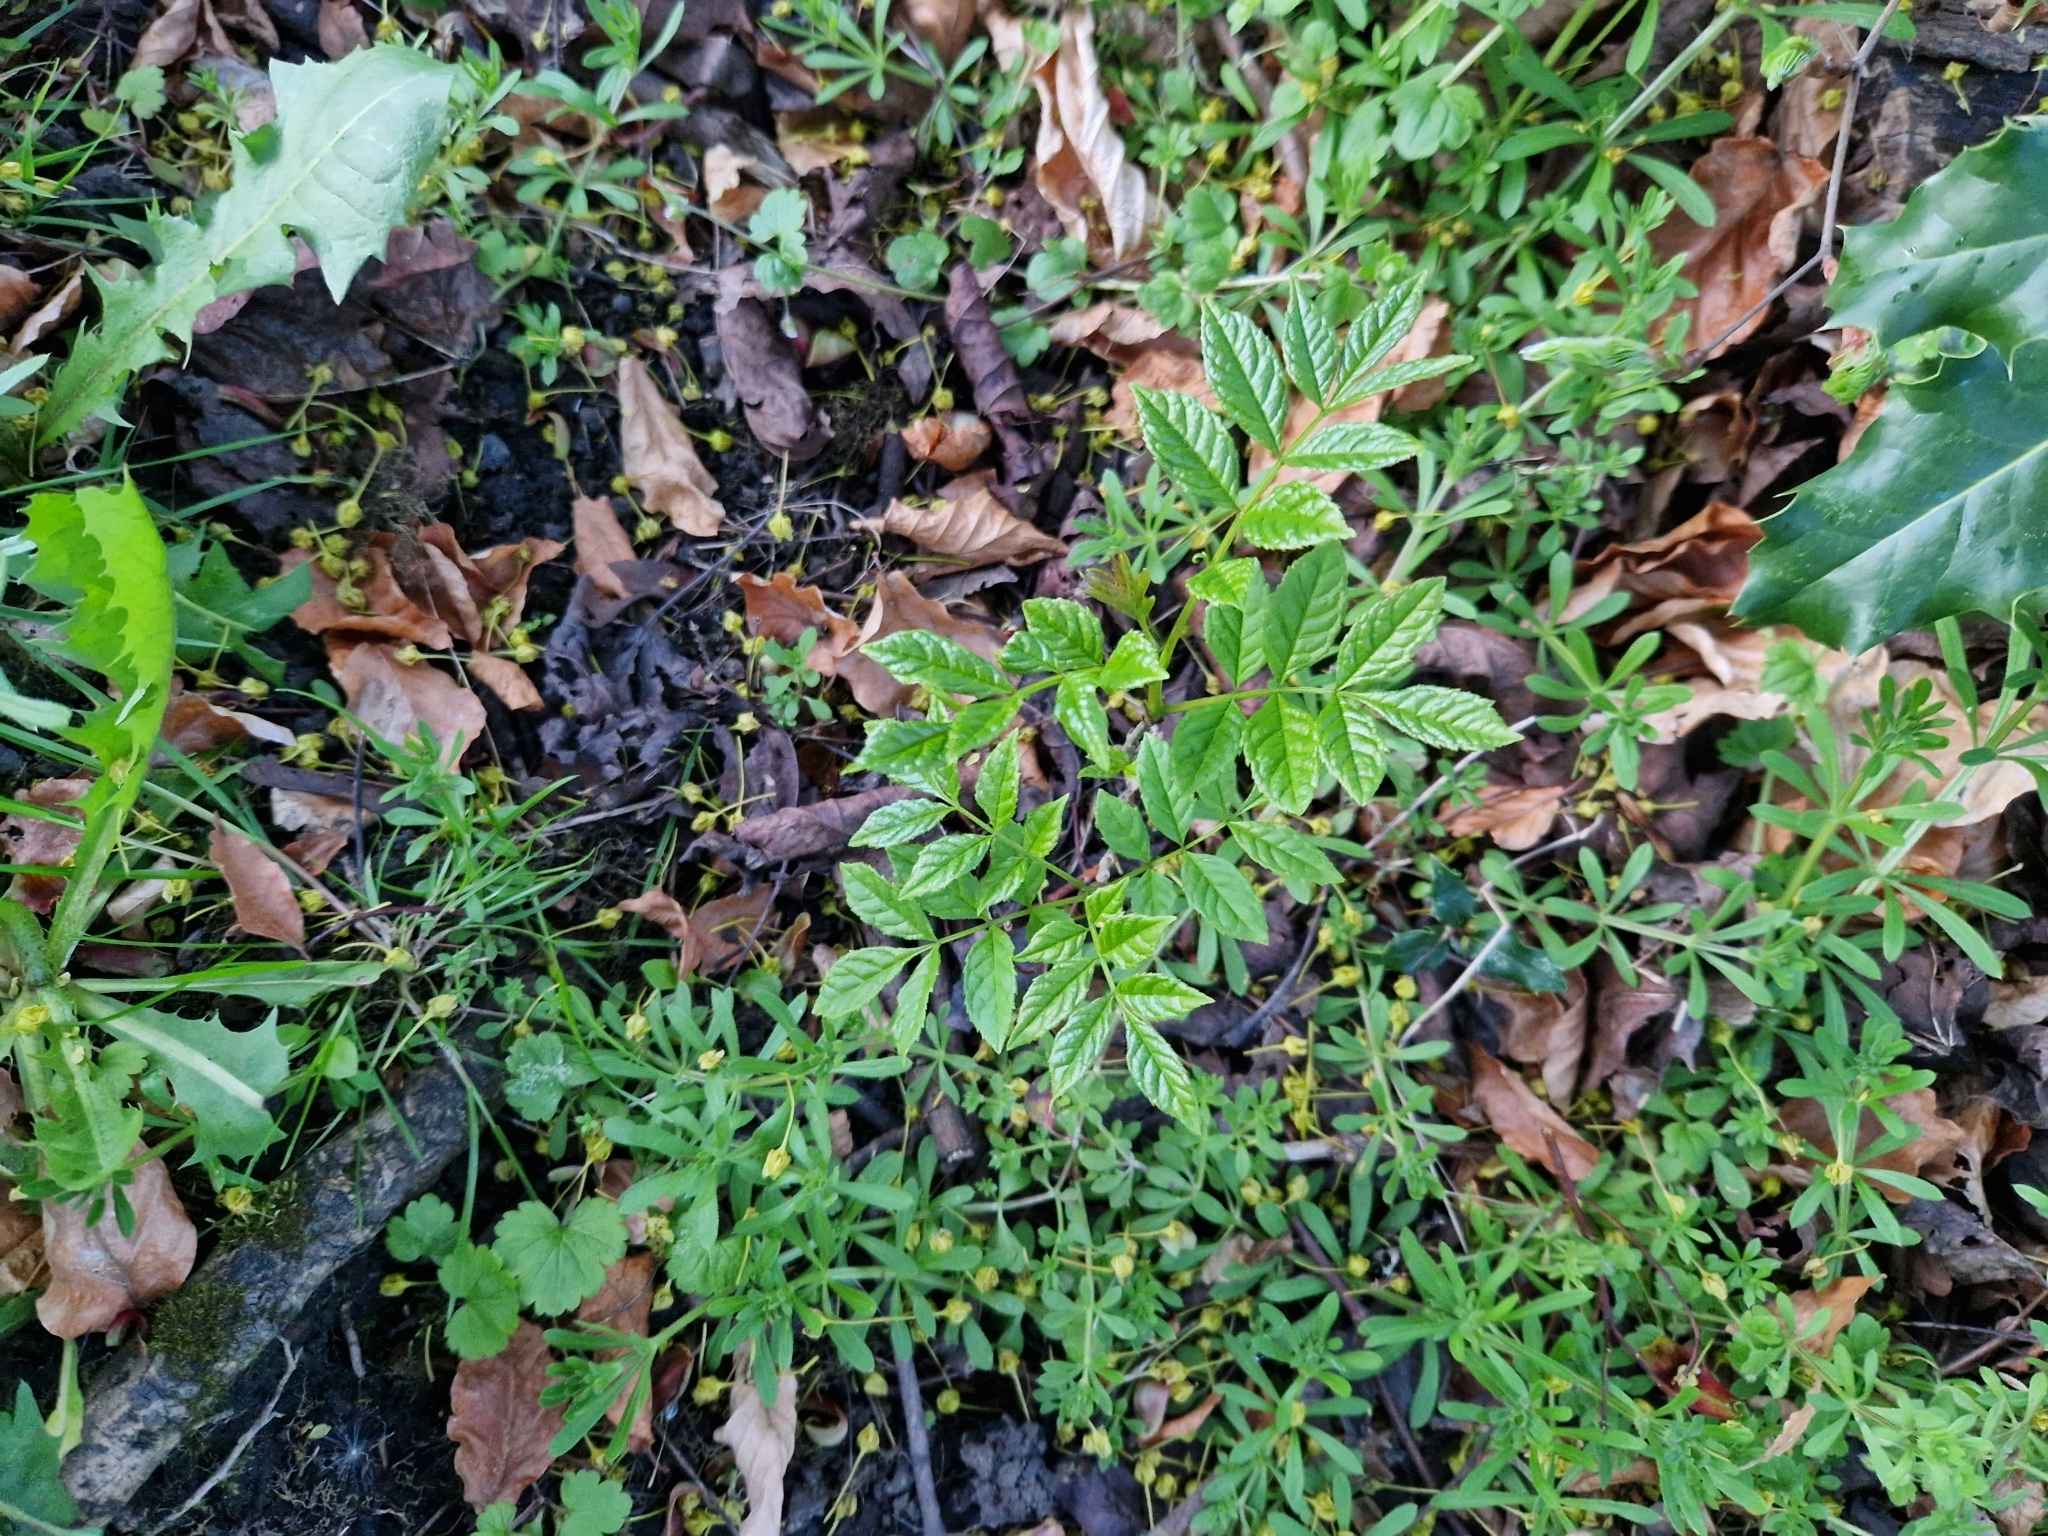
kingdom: Plantae
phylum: Tracheophyta
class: Magnoliopsida
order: Lamiales
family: Oleaceae
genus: Fraxinus
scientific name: Fraxinus excelsior
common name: European ash
